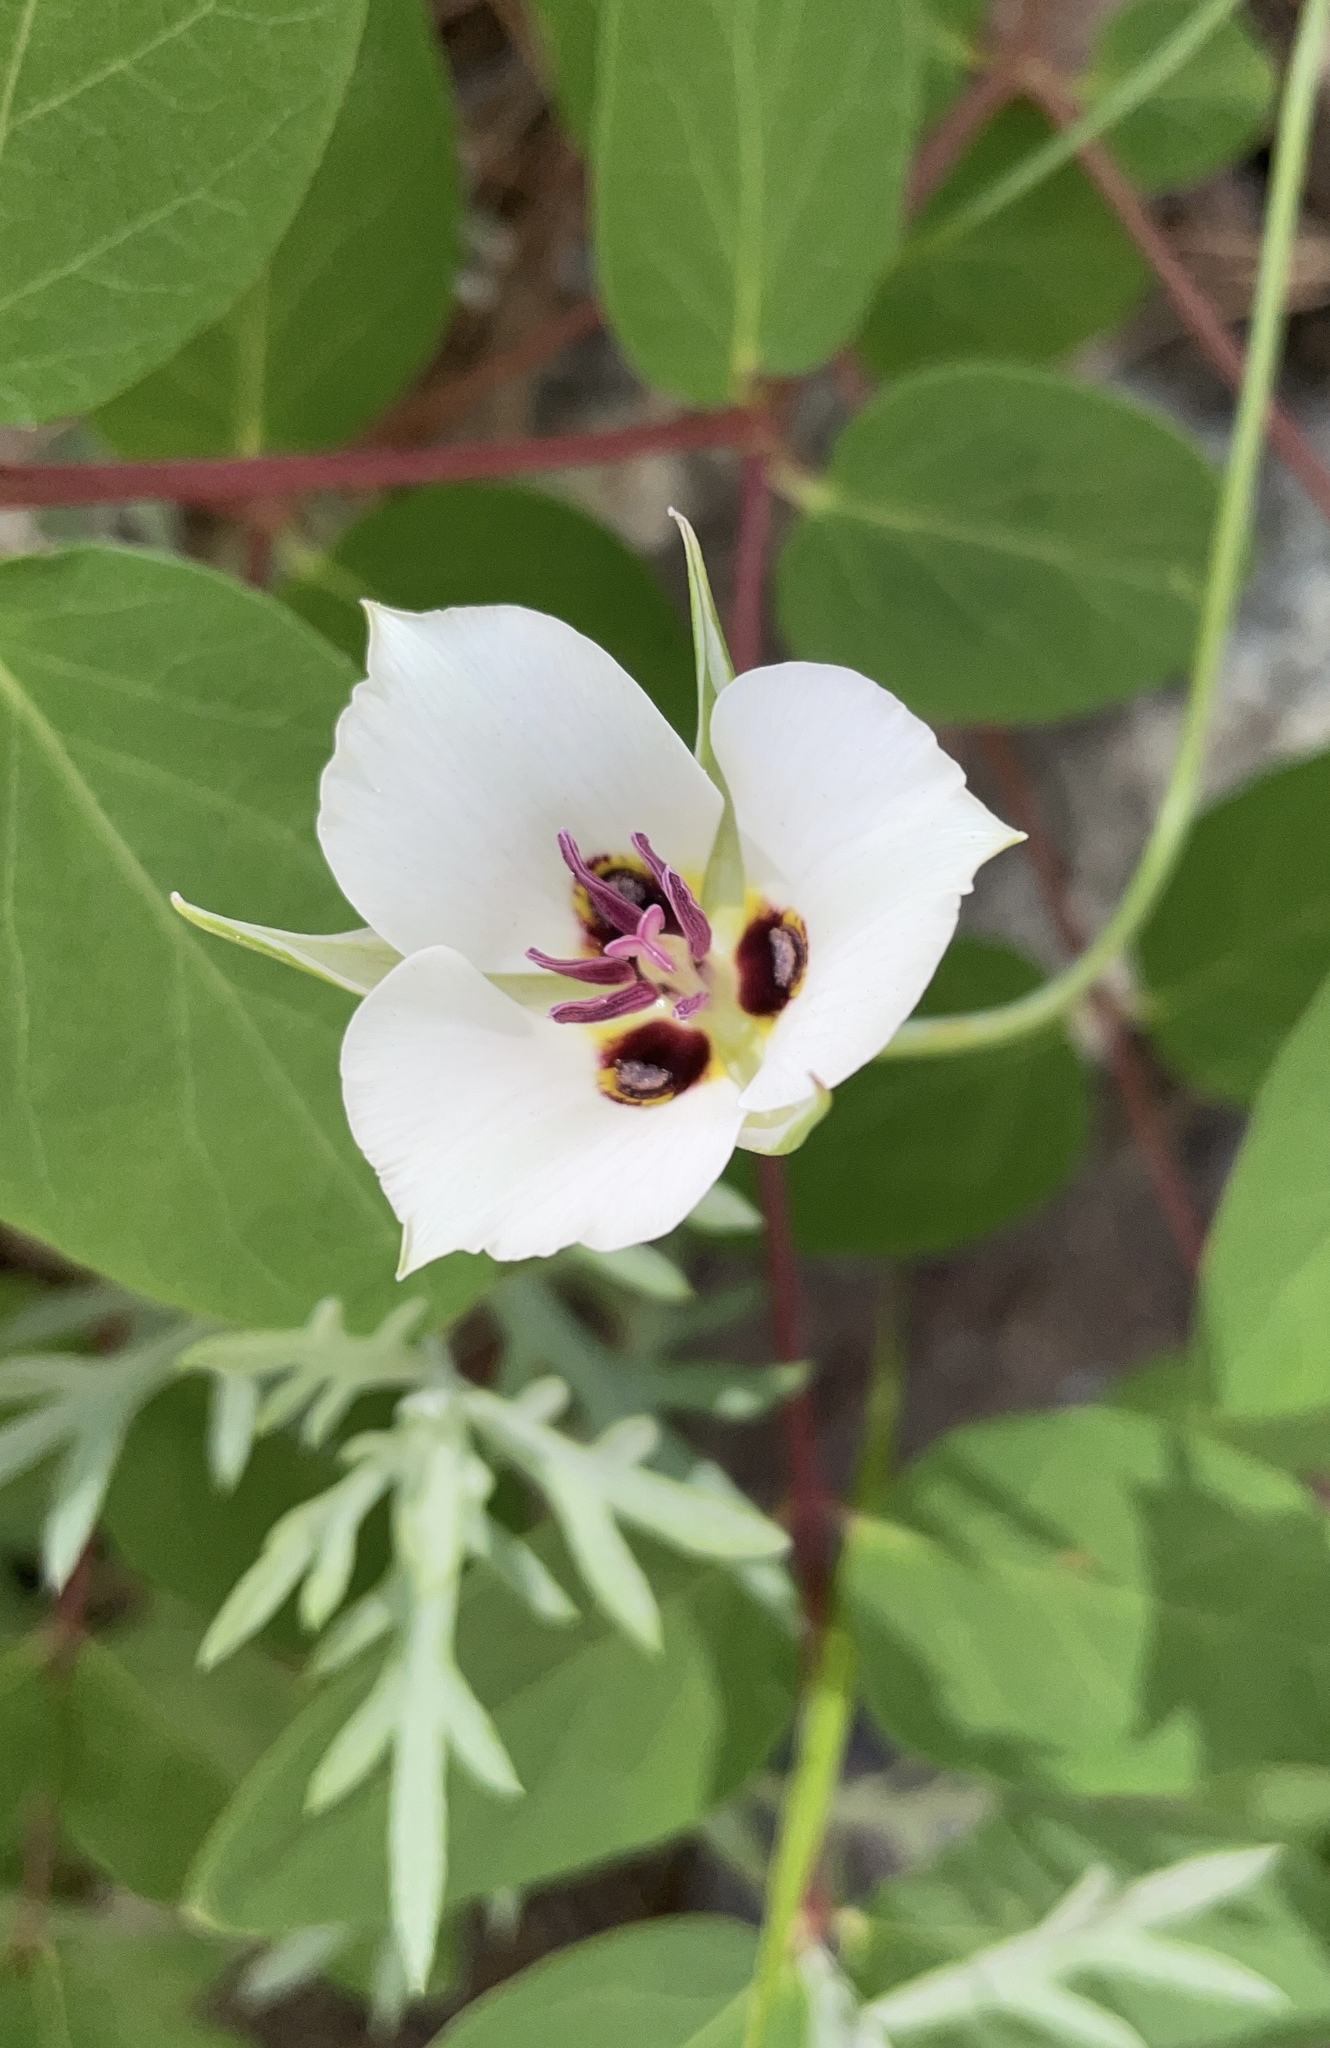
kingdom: Plantae
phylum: Tracheophyta
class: Liliopsida
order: Liliales
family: Liliaceae
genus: Calochortus
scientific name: Calochortus bruneaunis
